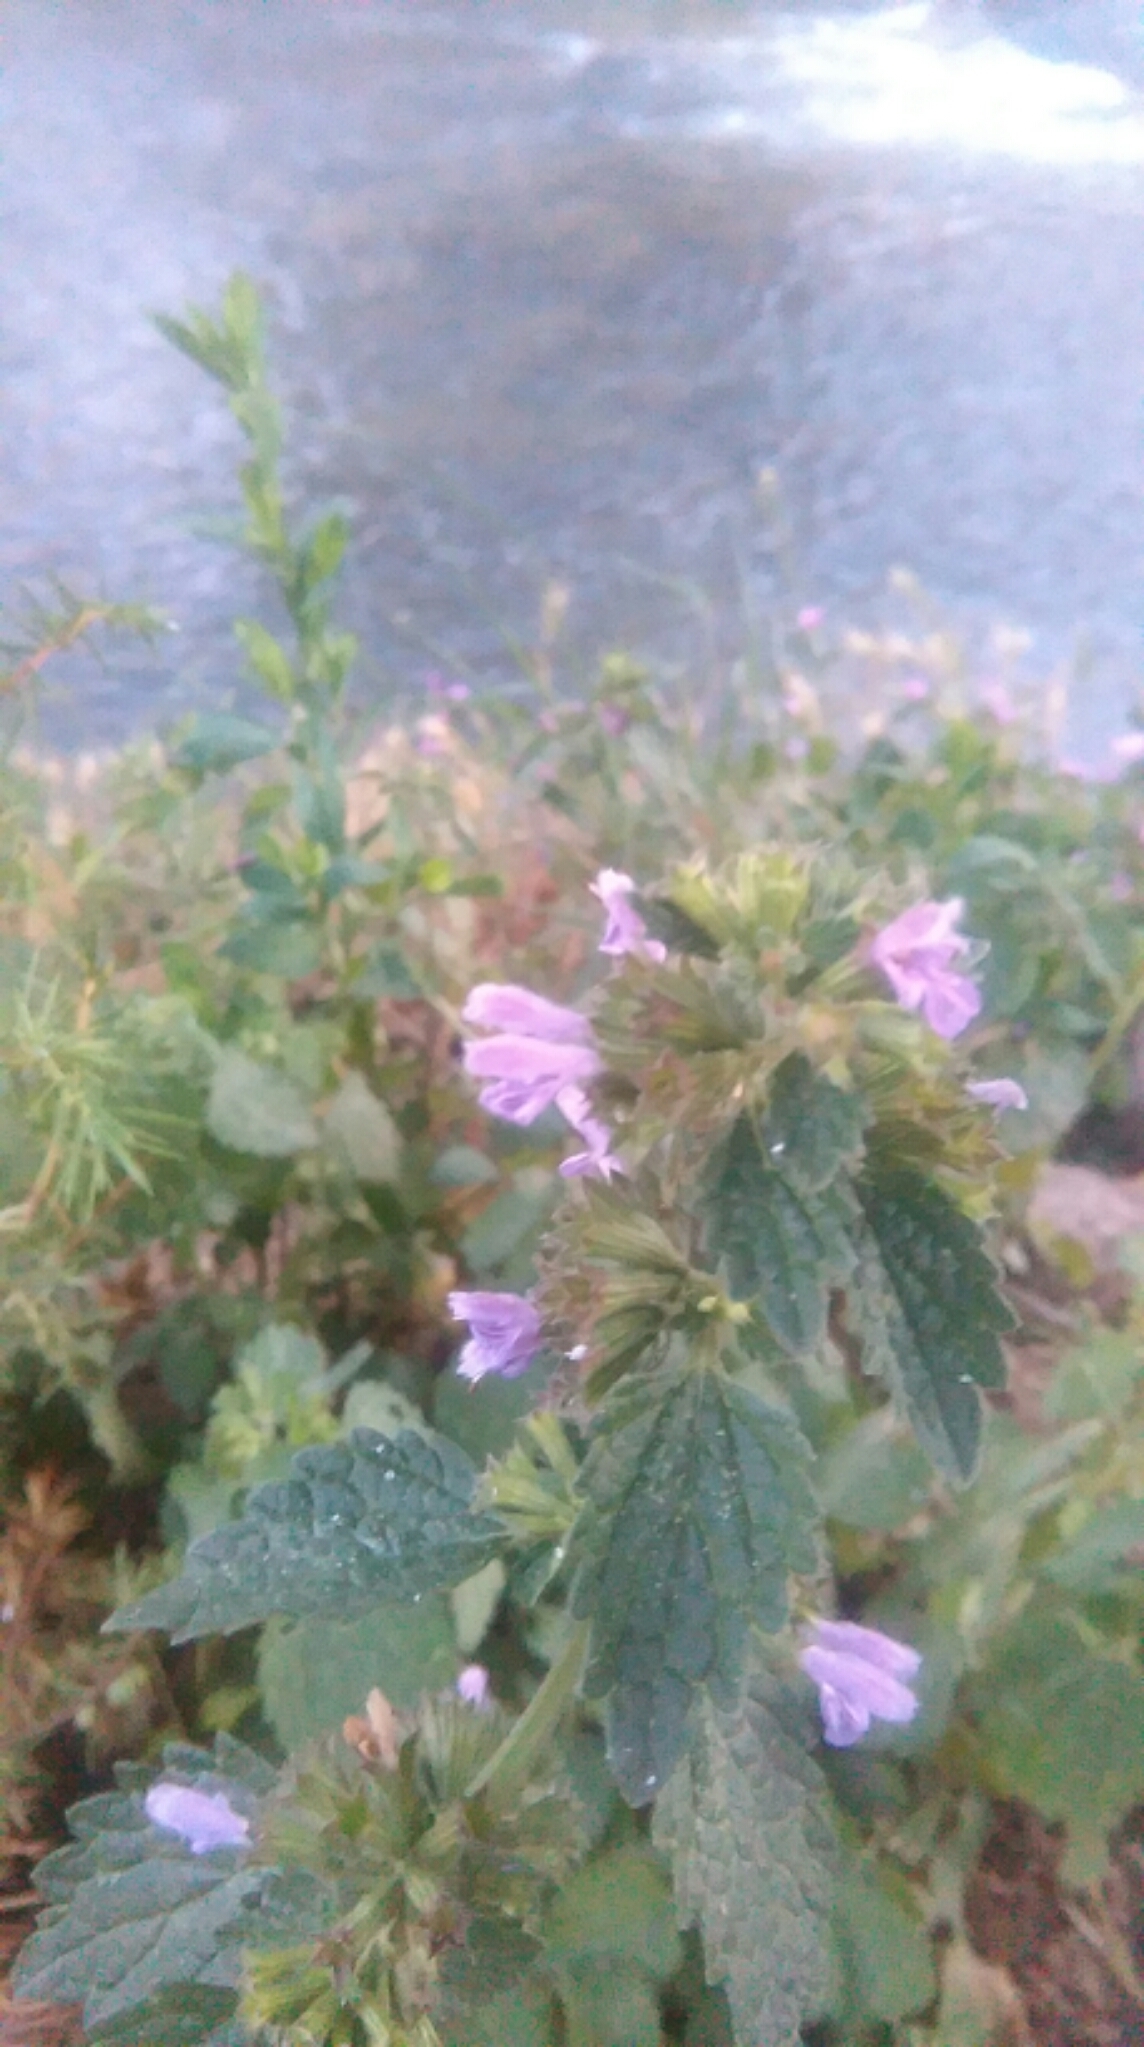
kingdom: Plantae
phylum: Tracheophyta
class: Magnoliopsida
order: Lamiales
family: Lamiaceae
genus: Ballota
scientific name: Ballota nigra
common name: Black horehound
